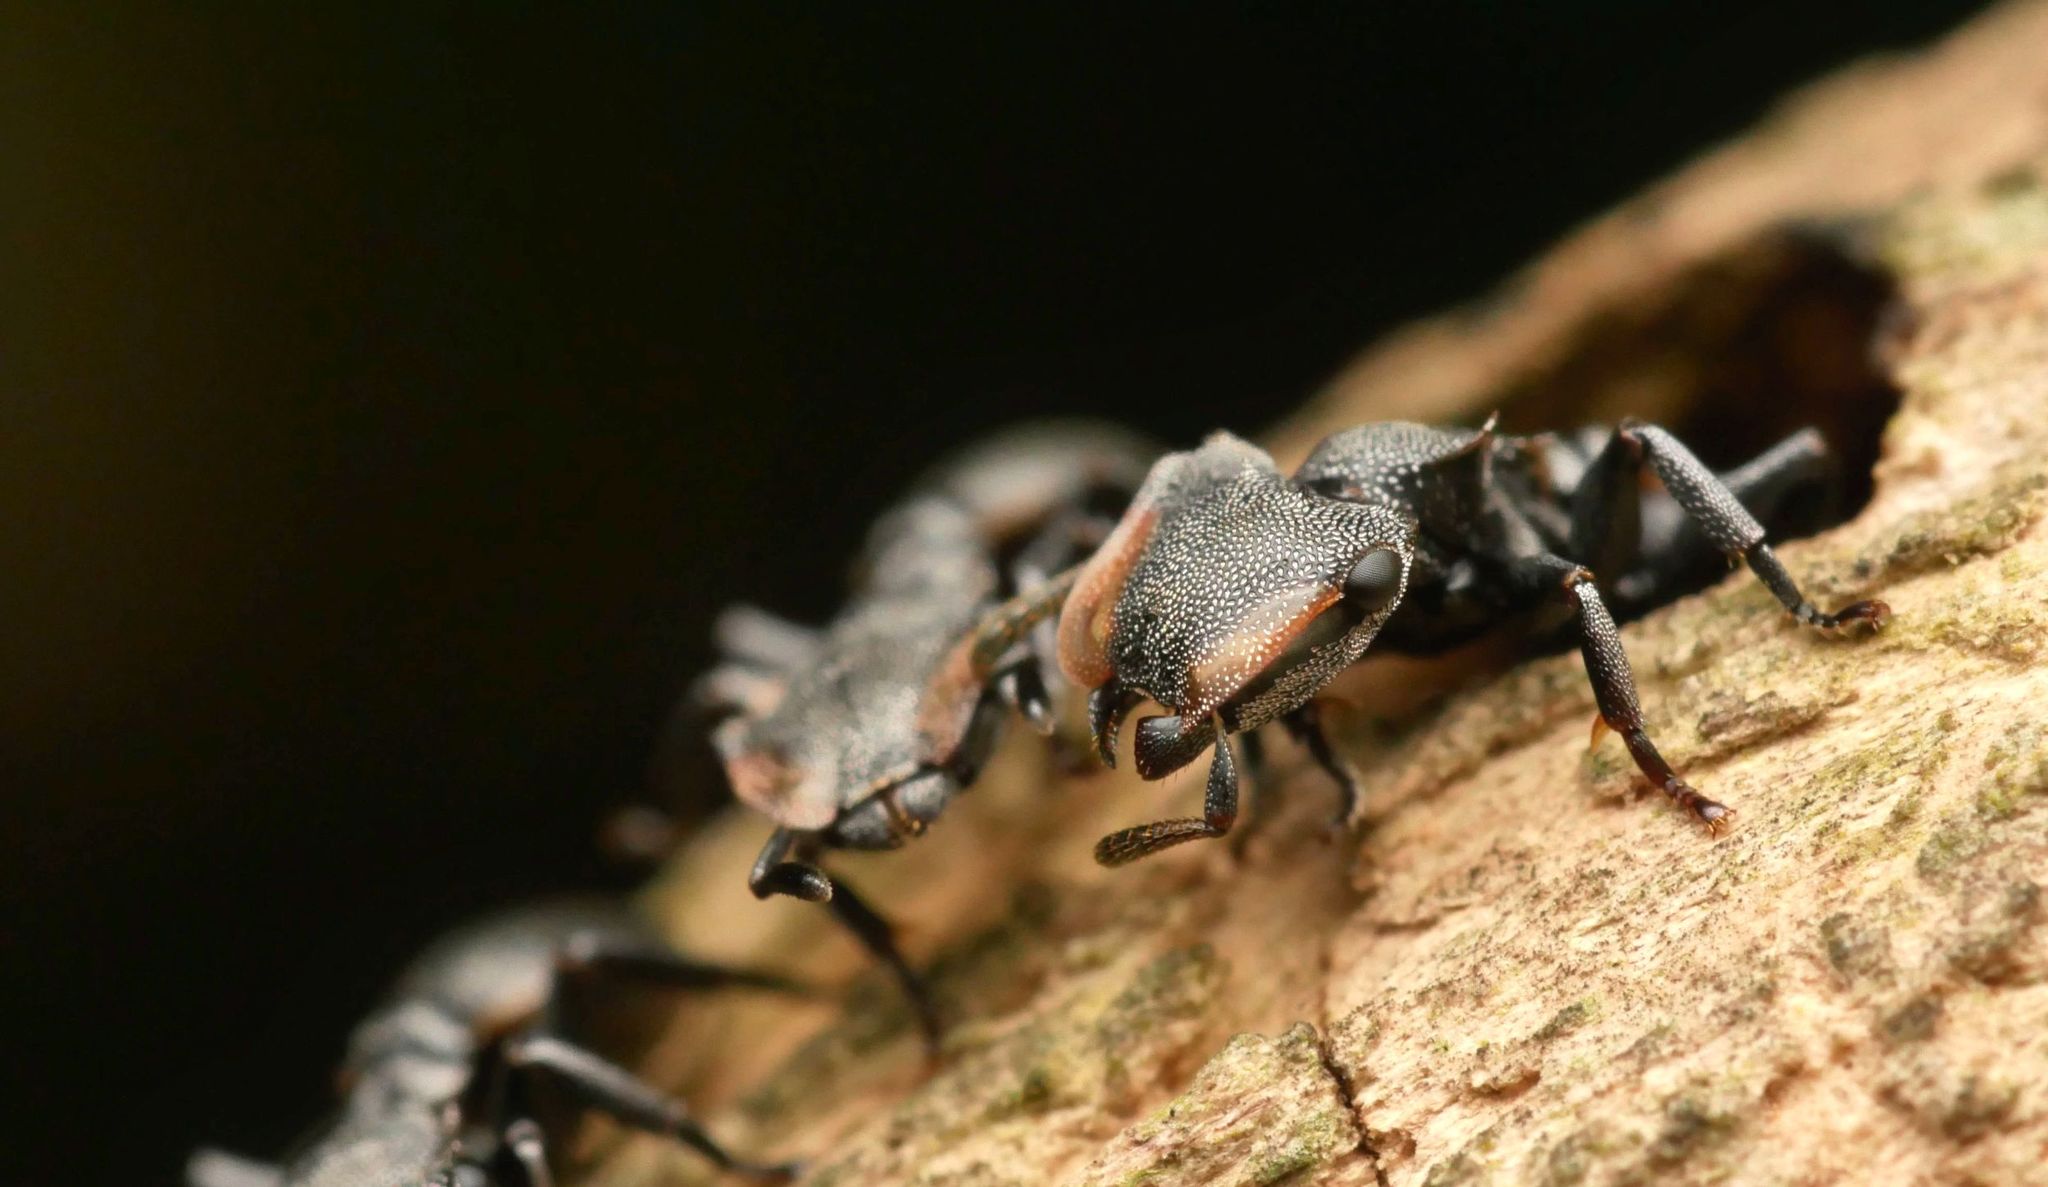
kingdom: Animalia
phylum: Arthropoda
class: Insecta
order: Hymenoptera
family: Formicidae
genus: Cephalotes
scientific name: Cephalotes multispinosus
